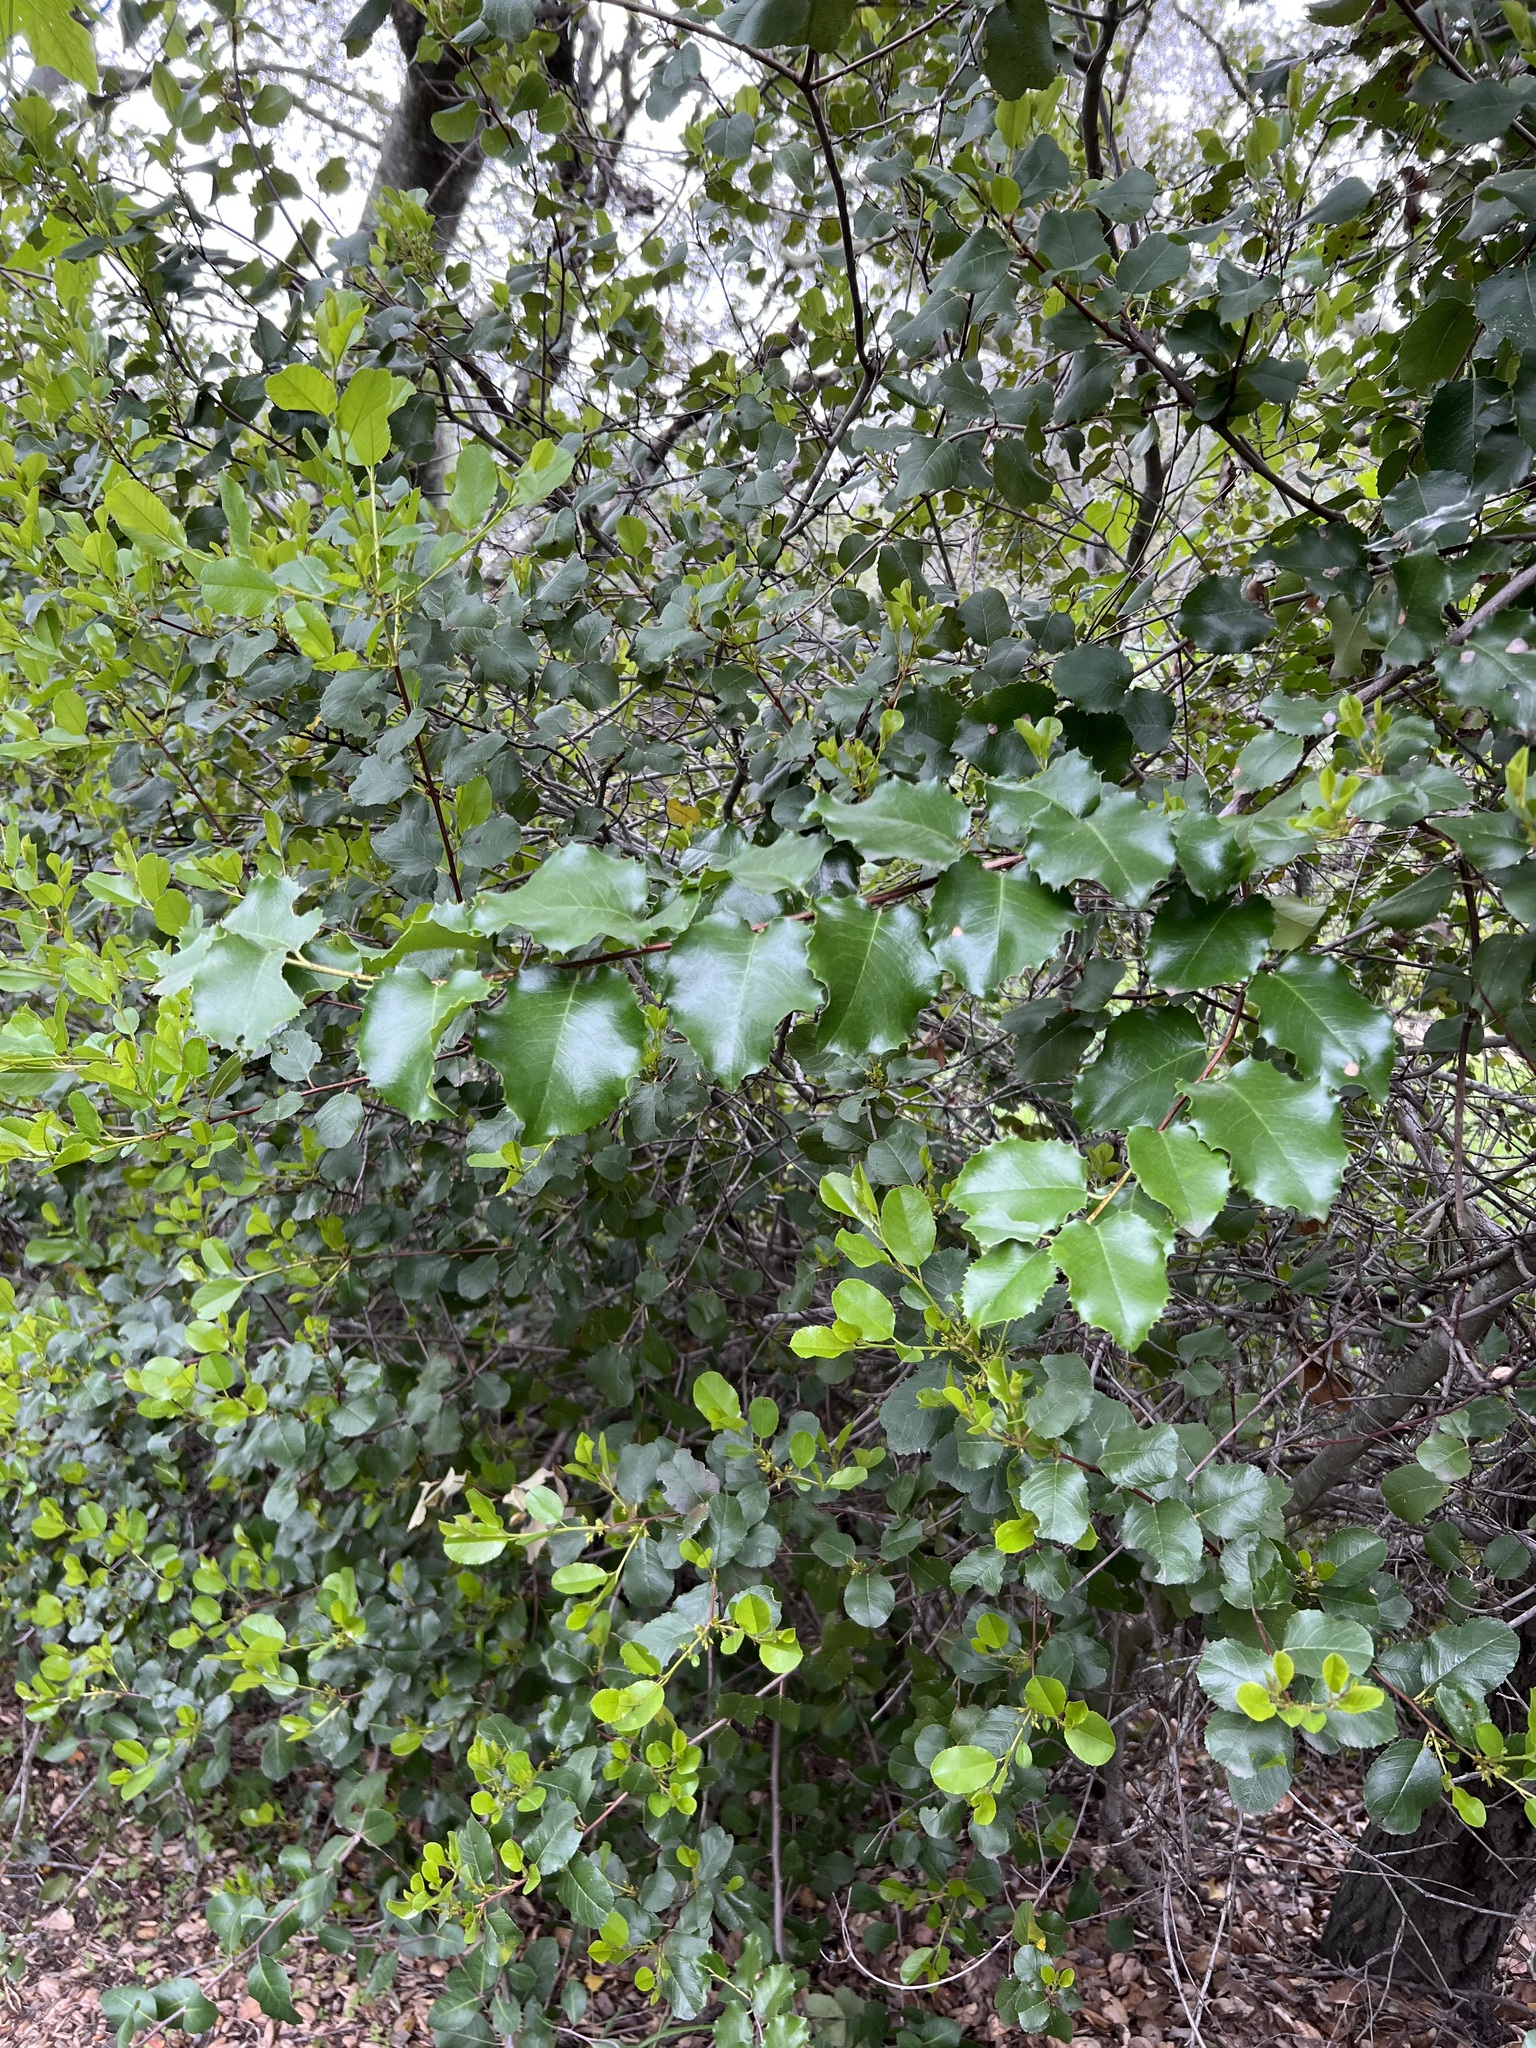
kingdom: Plantae
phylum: Tracheophyta
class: Magnoliopsida
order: Rosales
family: Rosaceae
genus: Prunus
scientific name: Prunus ilicifolia
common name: Hollyleaf cherry
